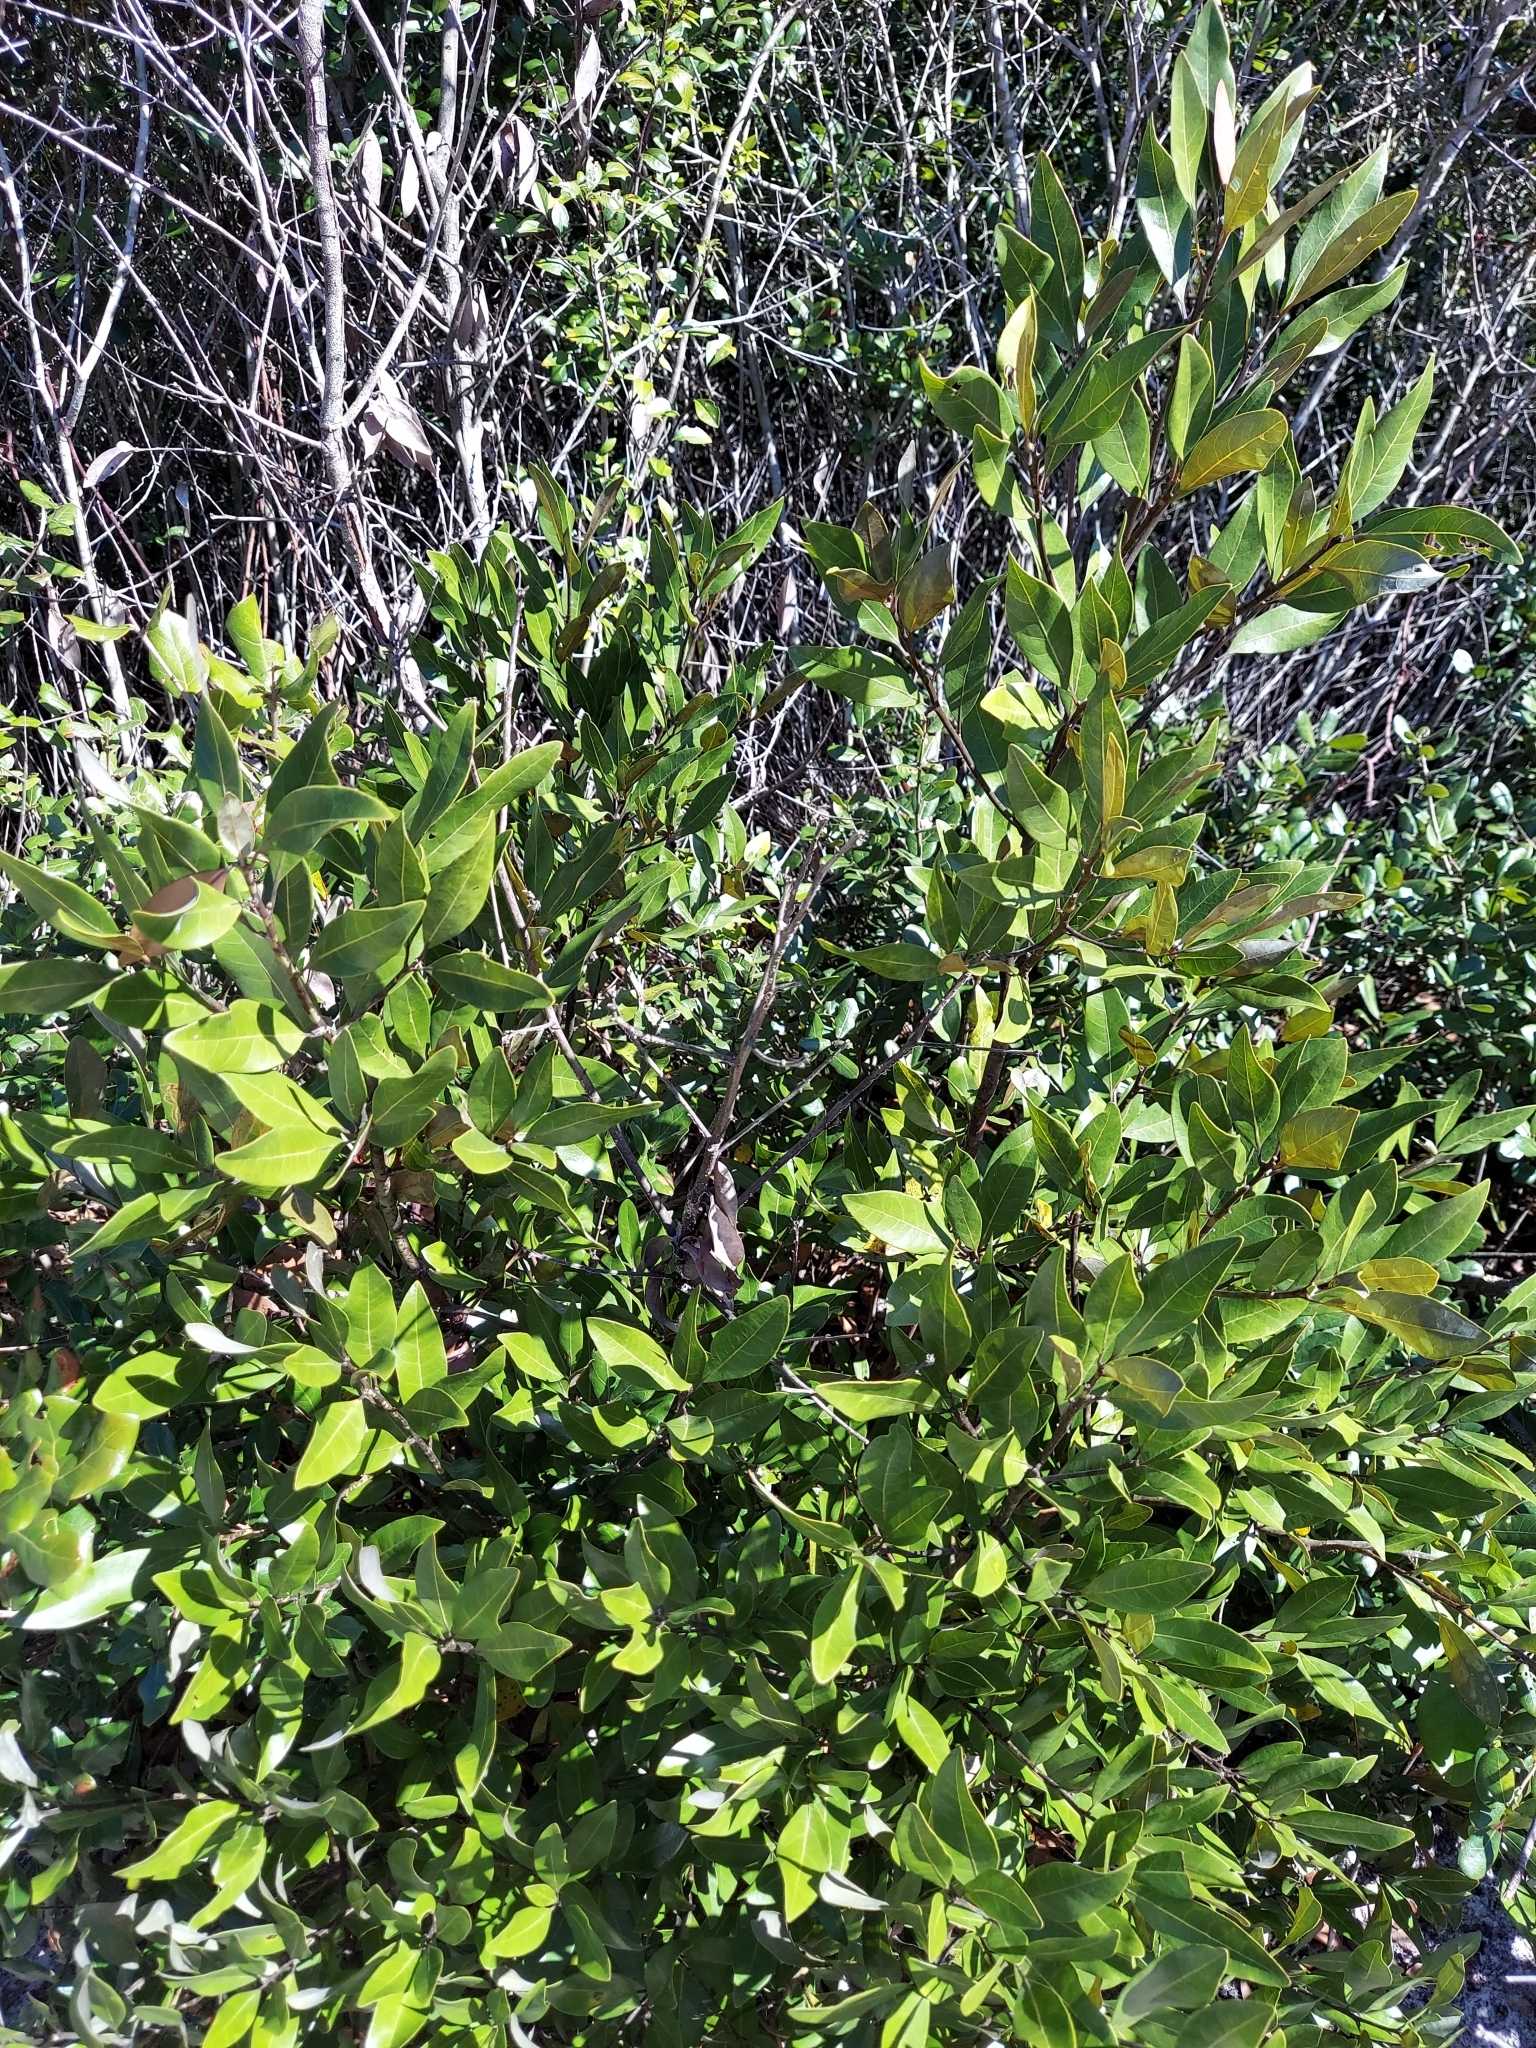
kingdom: Plantae
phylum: Tracheophyta
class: Magnoliopsida
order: Laurales
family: Lauraceae
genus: Persea
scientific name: Persea humilis
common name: Silkbay
